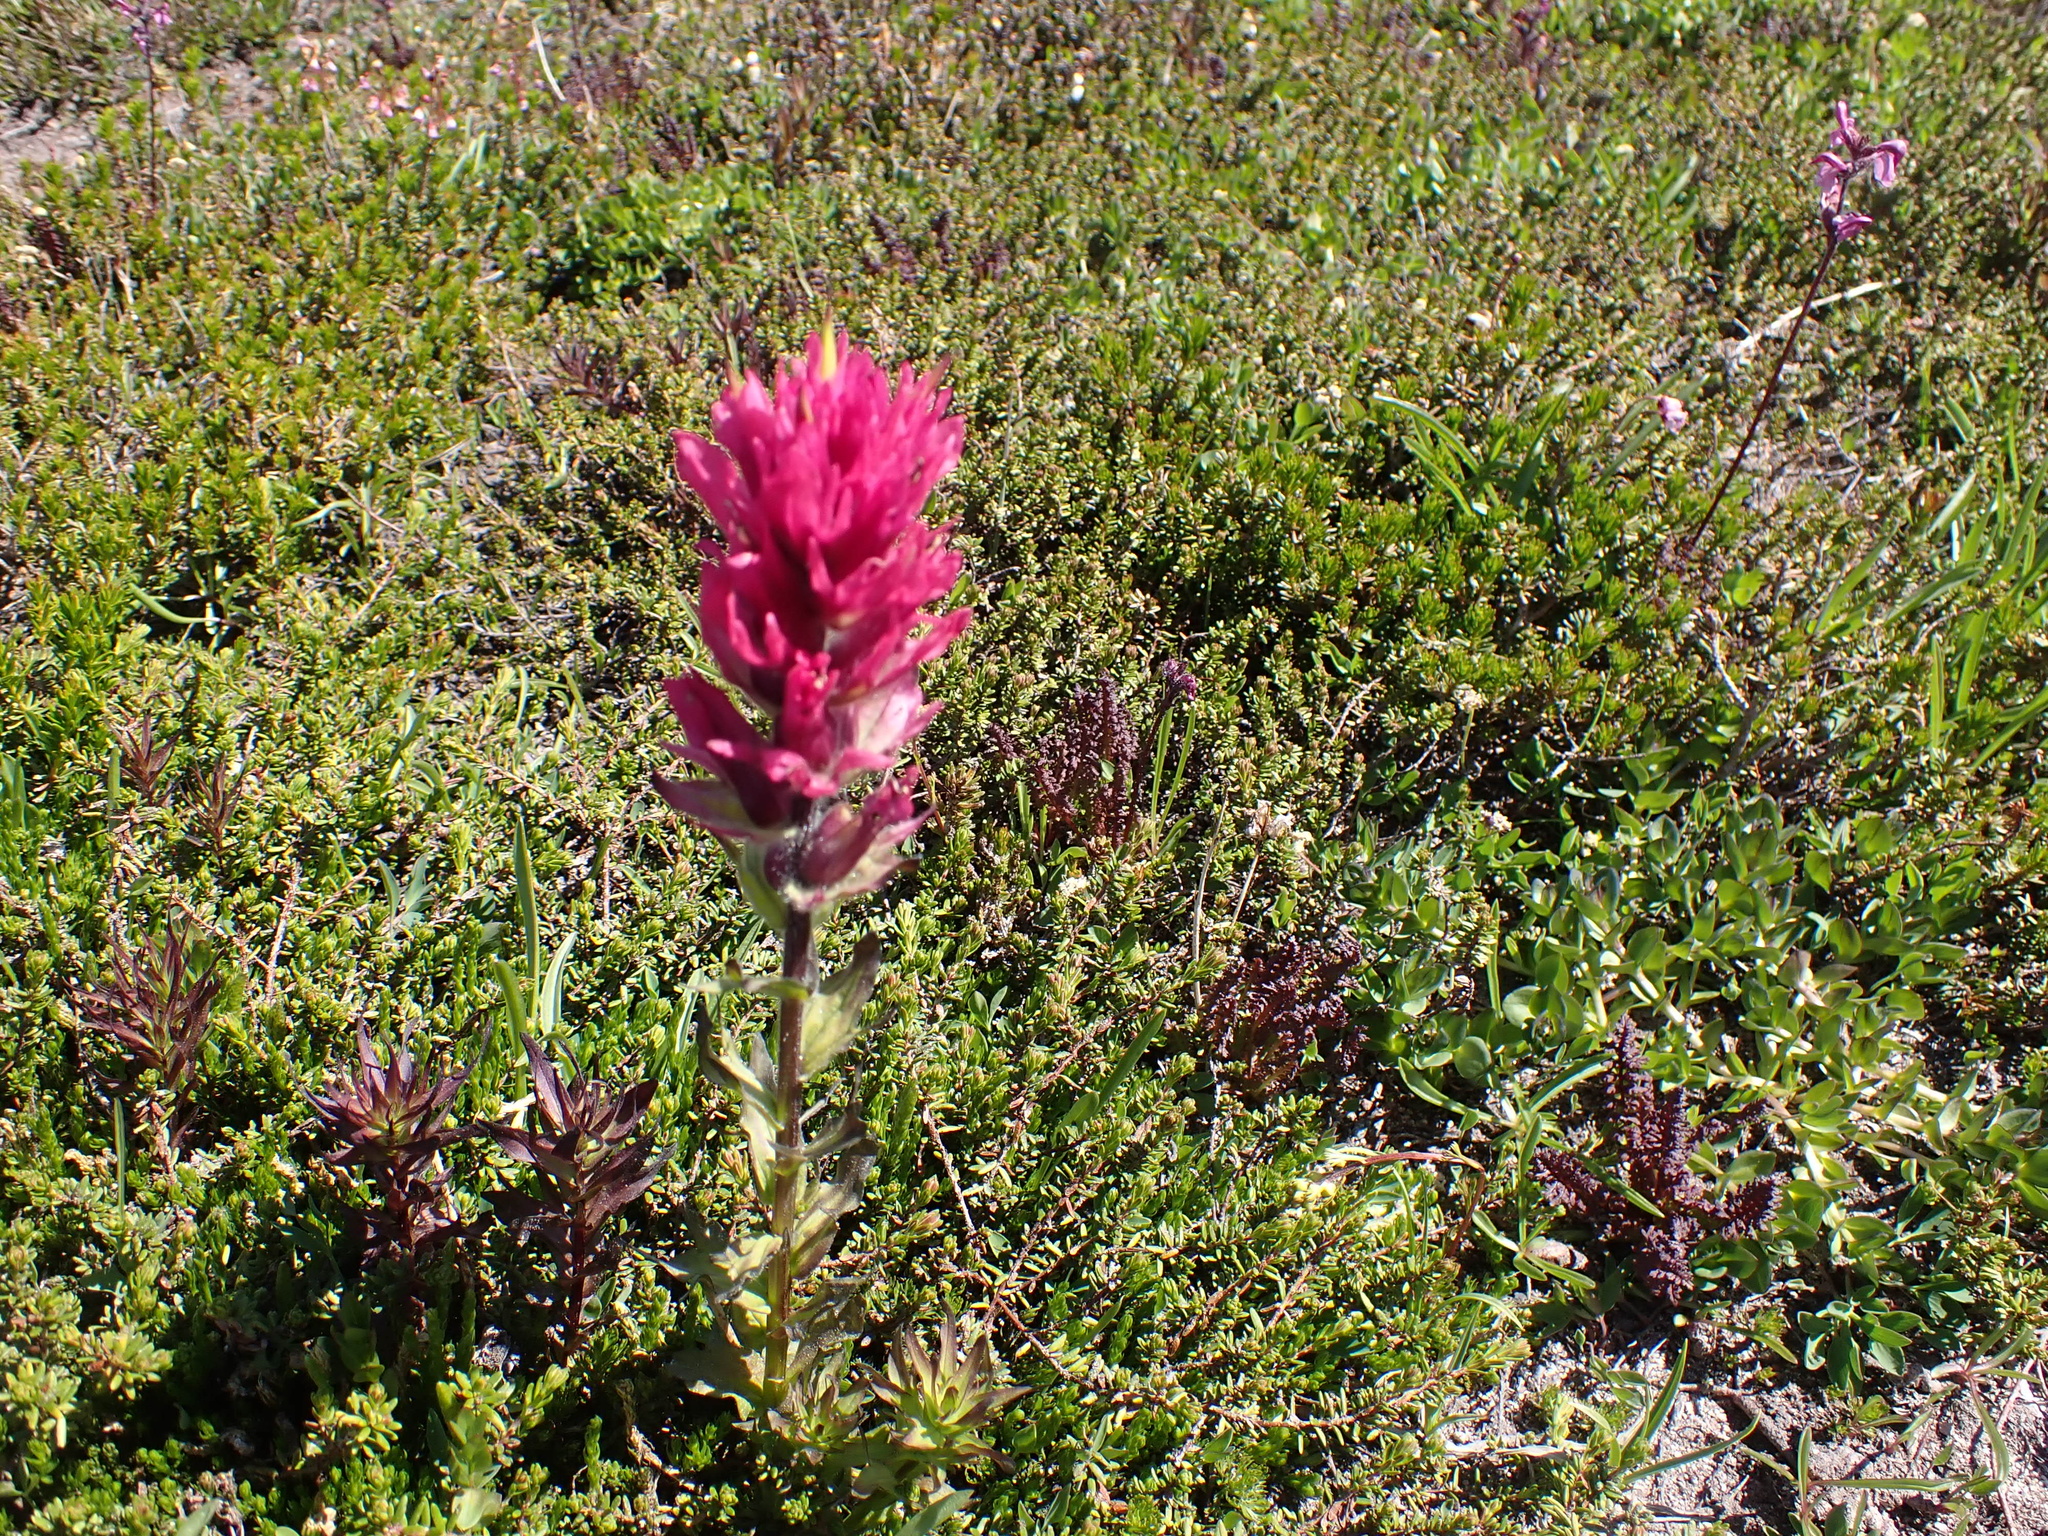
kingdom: Plantae
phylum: Tracheophyta
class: Magnoliopsida
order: Lamiales
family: Orobanchaceae
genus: Castilleja
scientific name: Castilleja parviflora
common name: Mountain paintbrush
